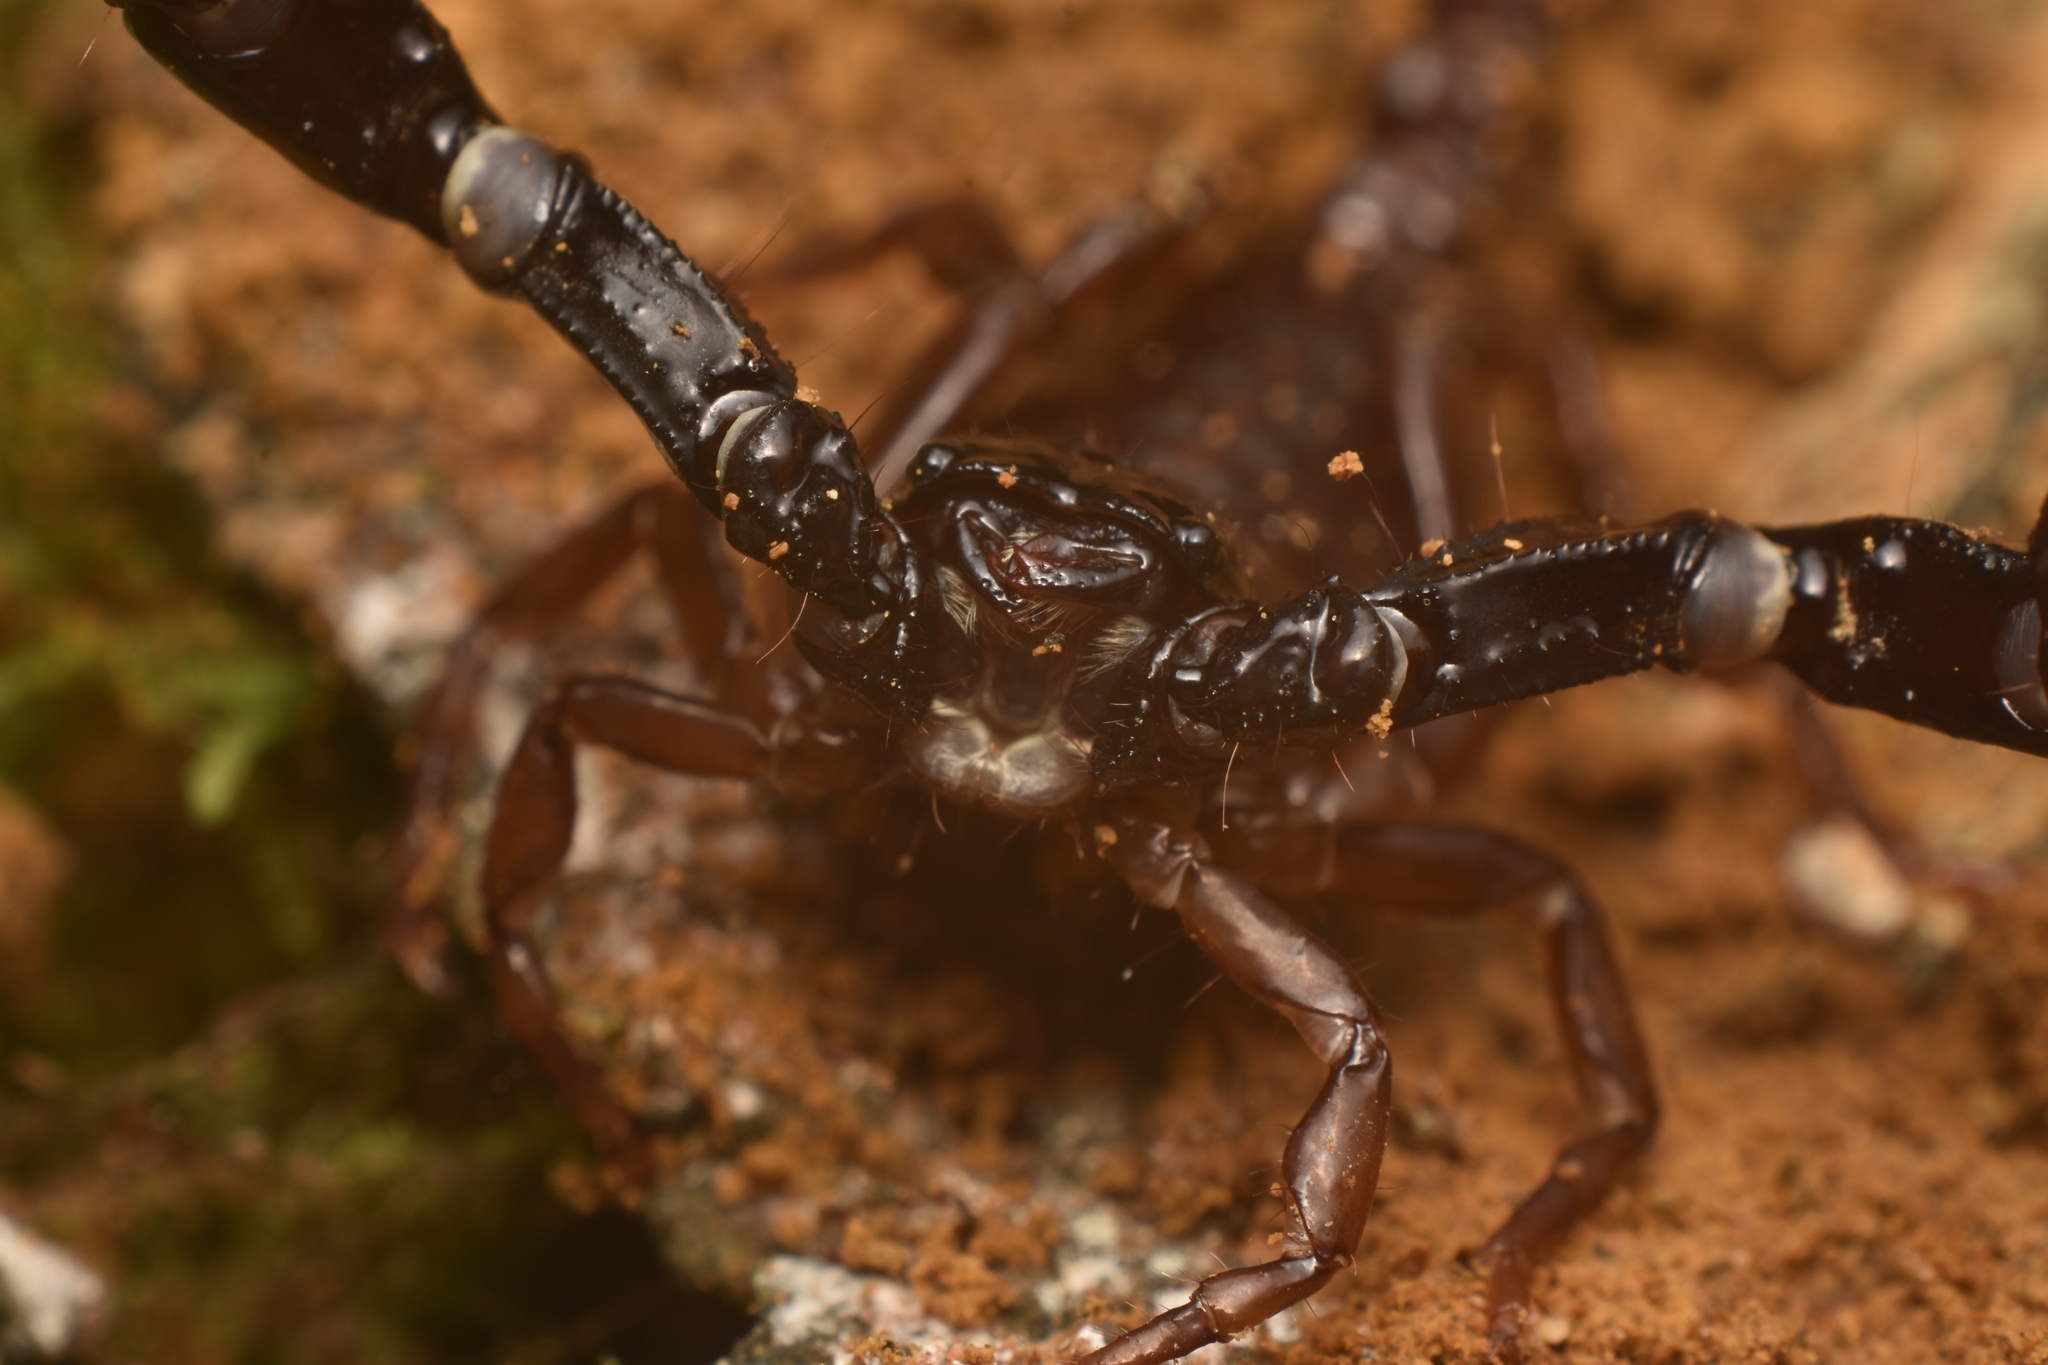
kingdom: Animalia
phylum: Arthropoda
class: Arachnida
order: Scorpiones
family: Chactidae
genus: Chactas
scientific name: Chactas
